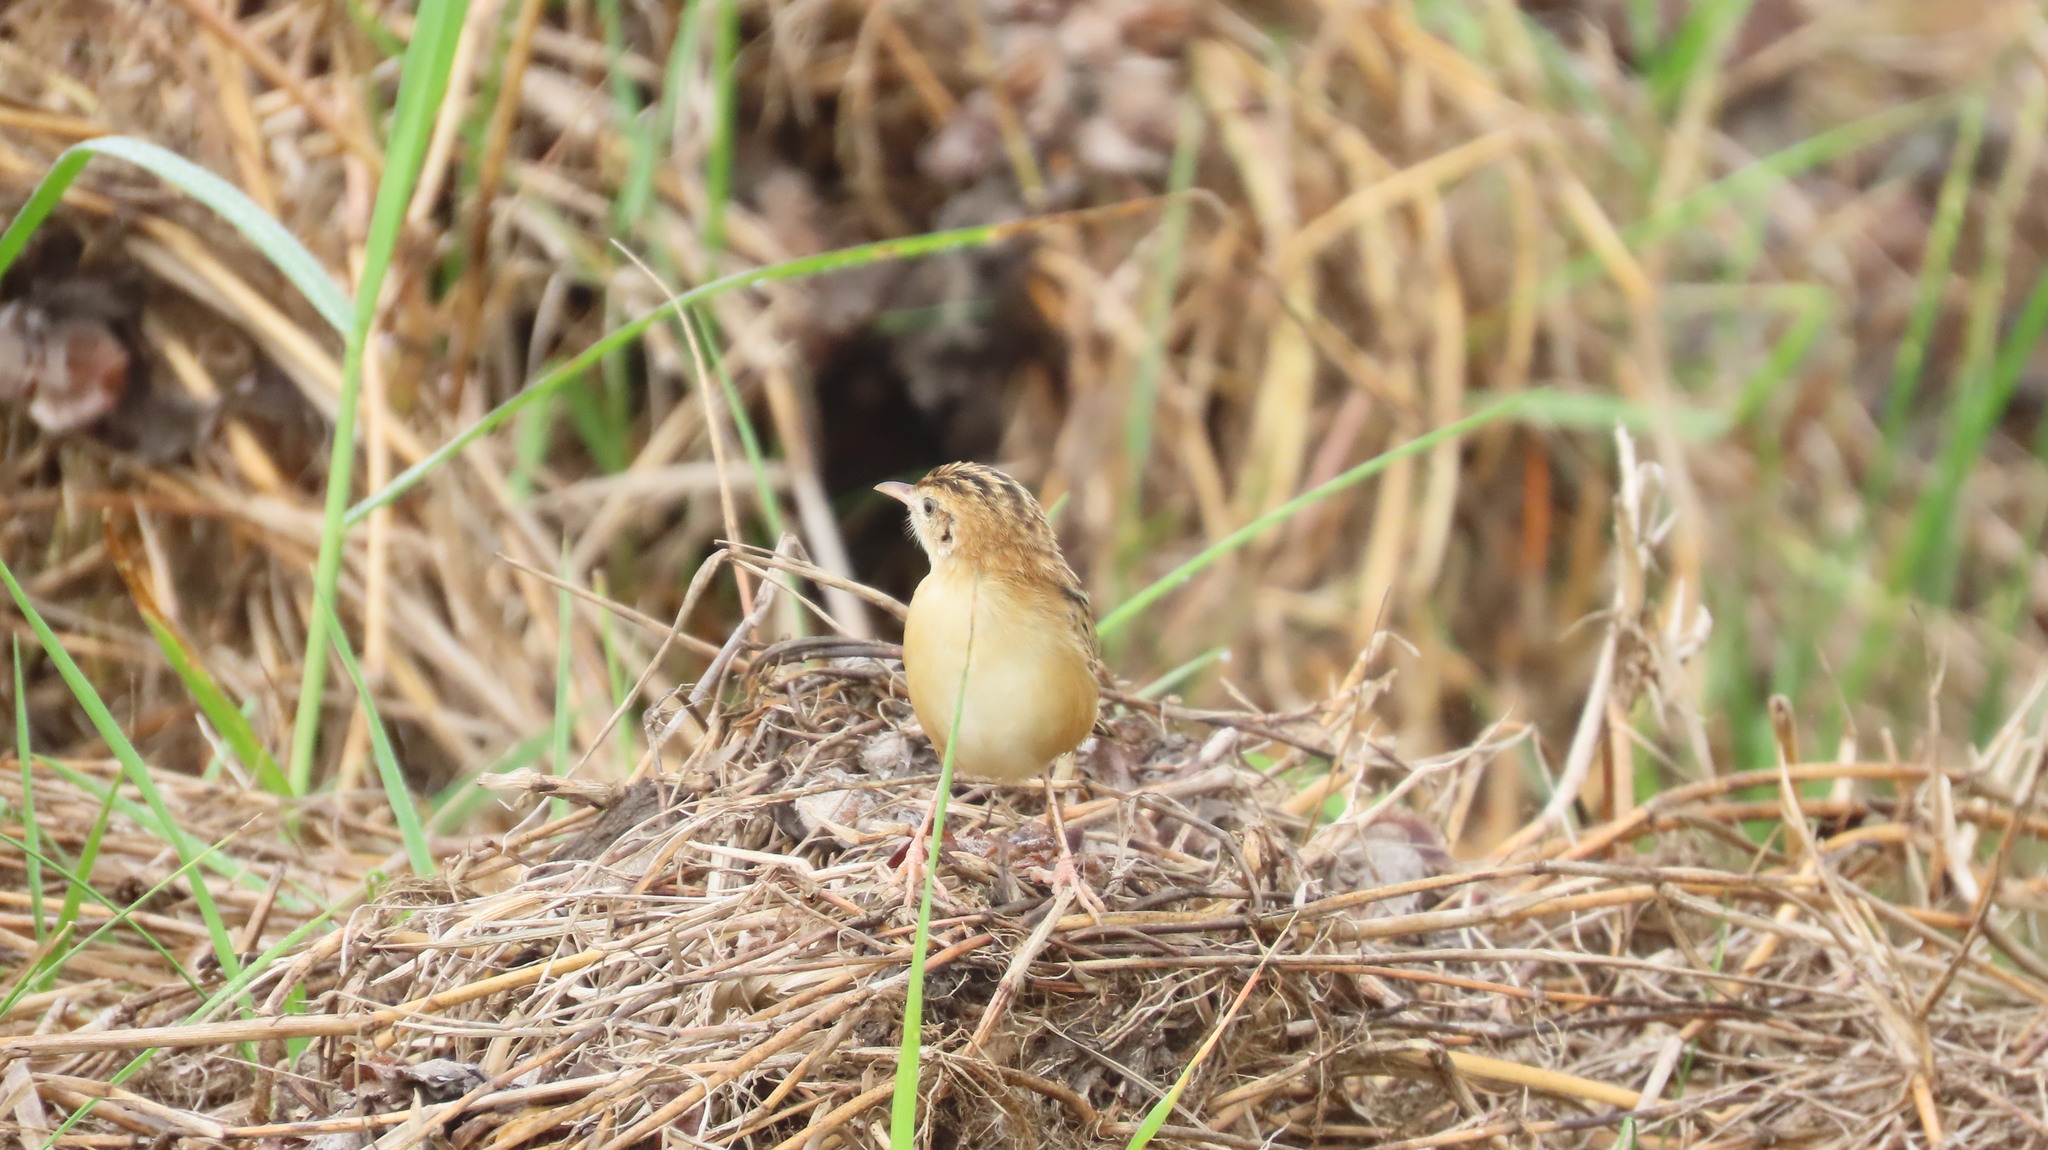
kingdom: Animalia
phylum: Chordata
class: Aves
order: Passeriformes
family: Cisticolidae
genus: Cisticola
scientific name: Cisticola juncidis
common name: Zitting cisticola
